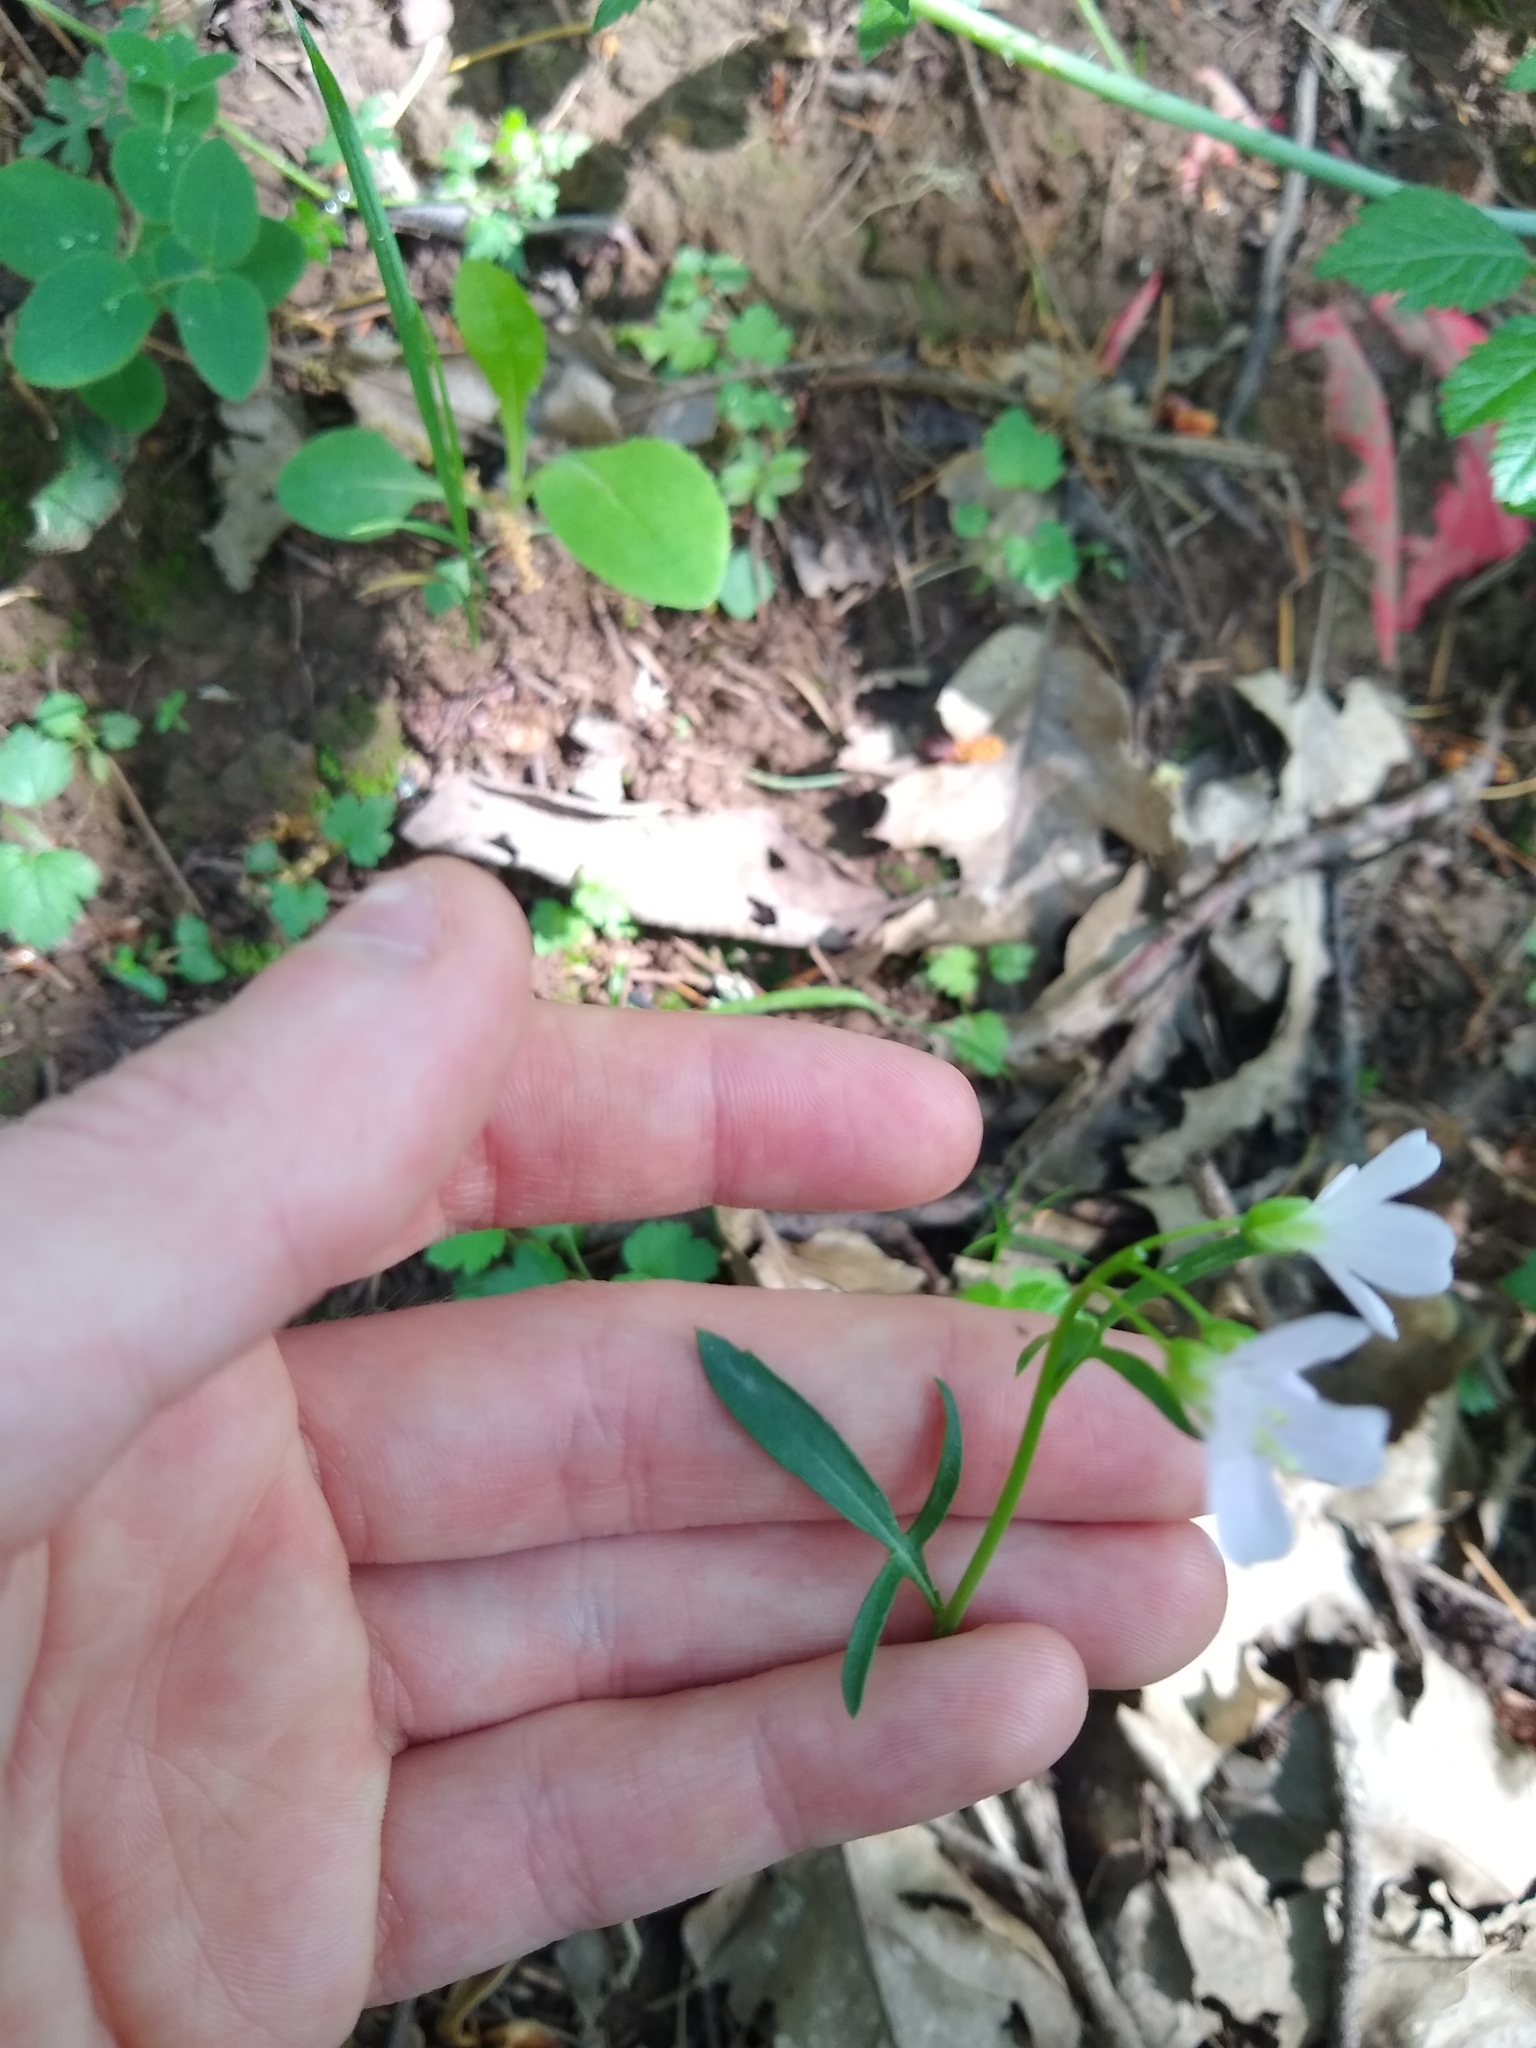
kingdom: Plantae
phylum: Tracheophyta
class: Magnoliopsida
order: Brassicales
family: Brassicaceae
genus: Cardamine
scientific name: Cardamine nuttallii
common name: Nuttall's toothwort
